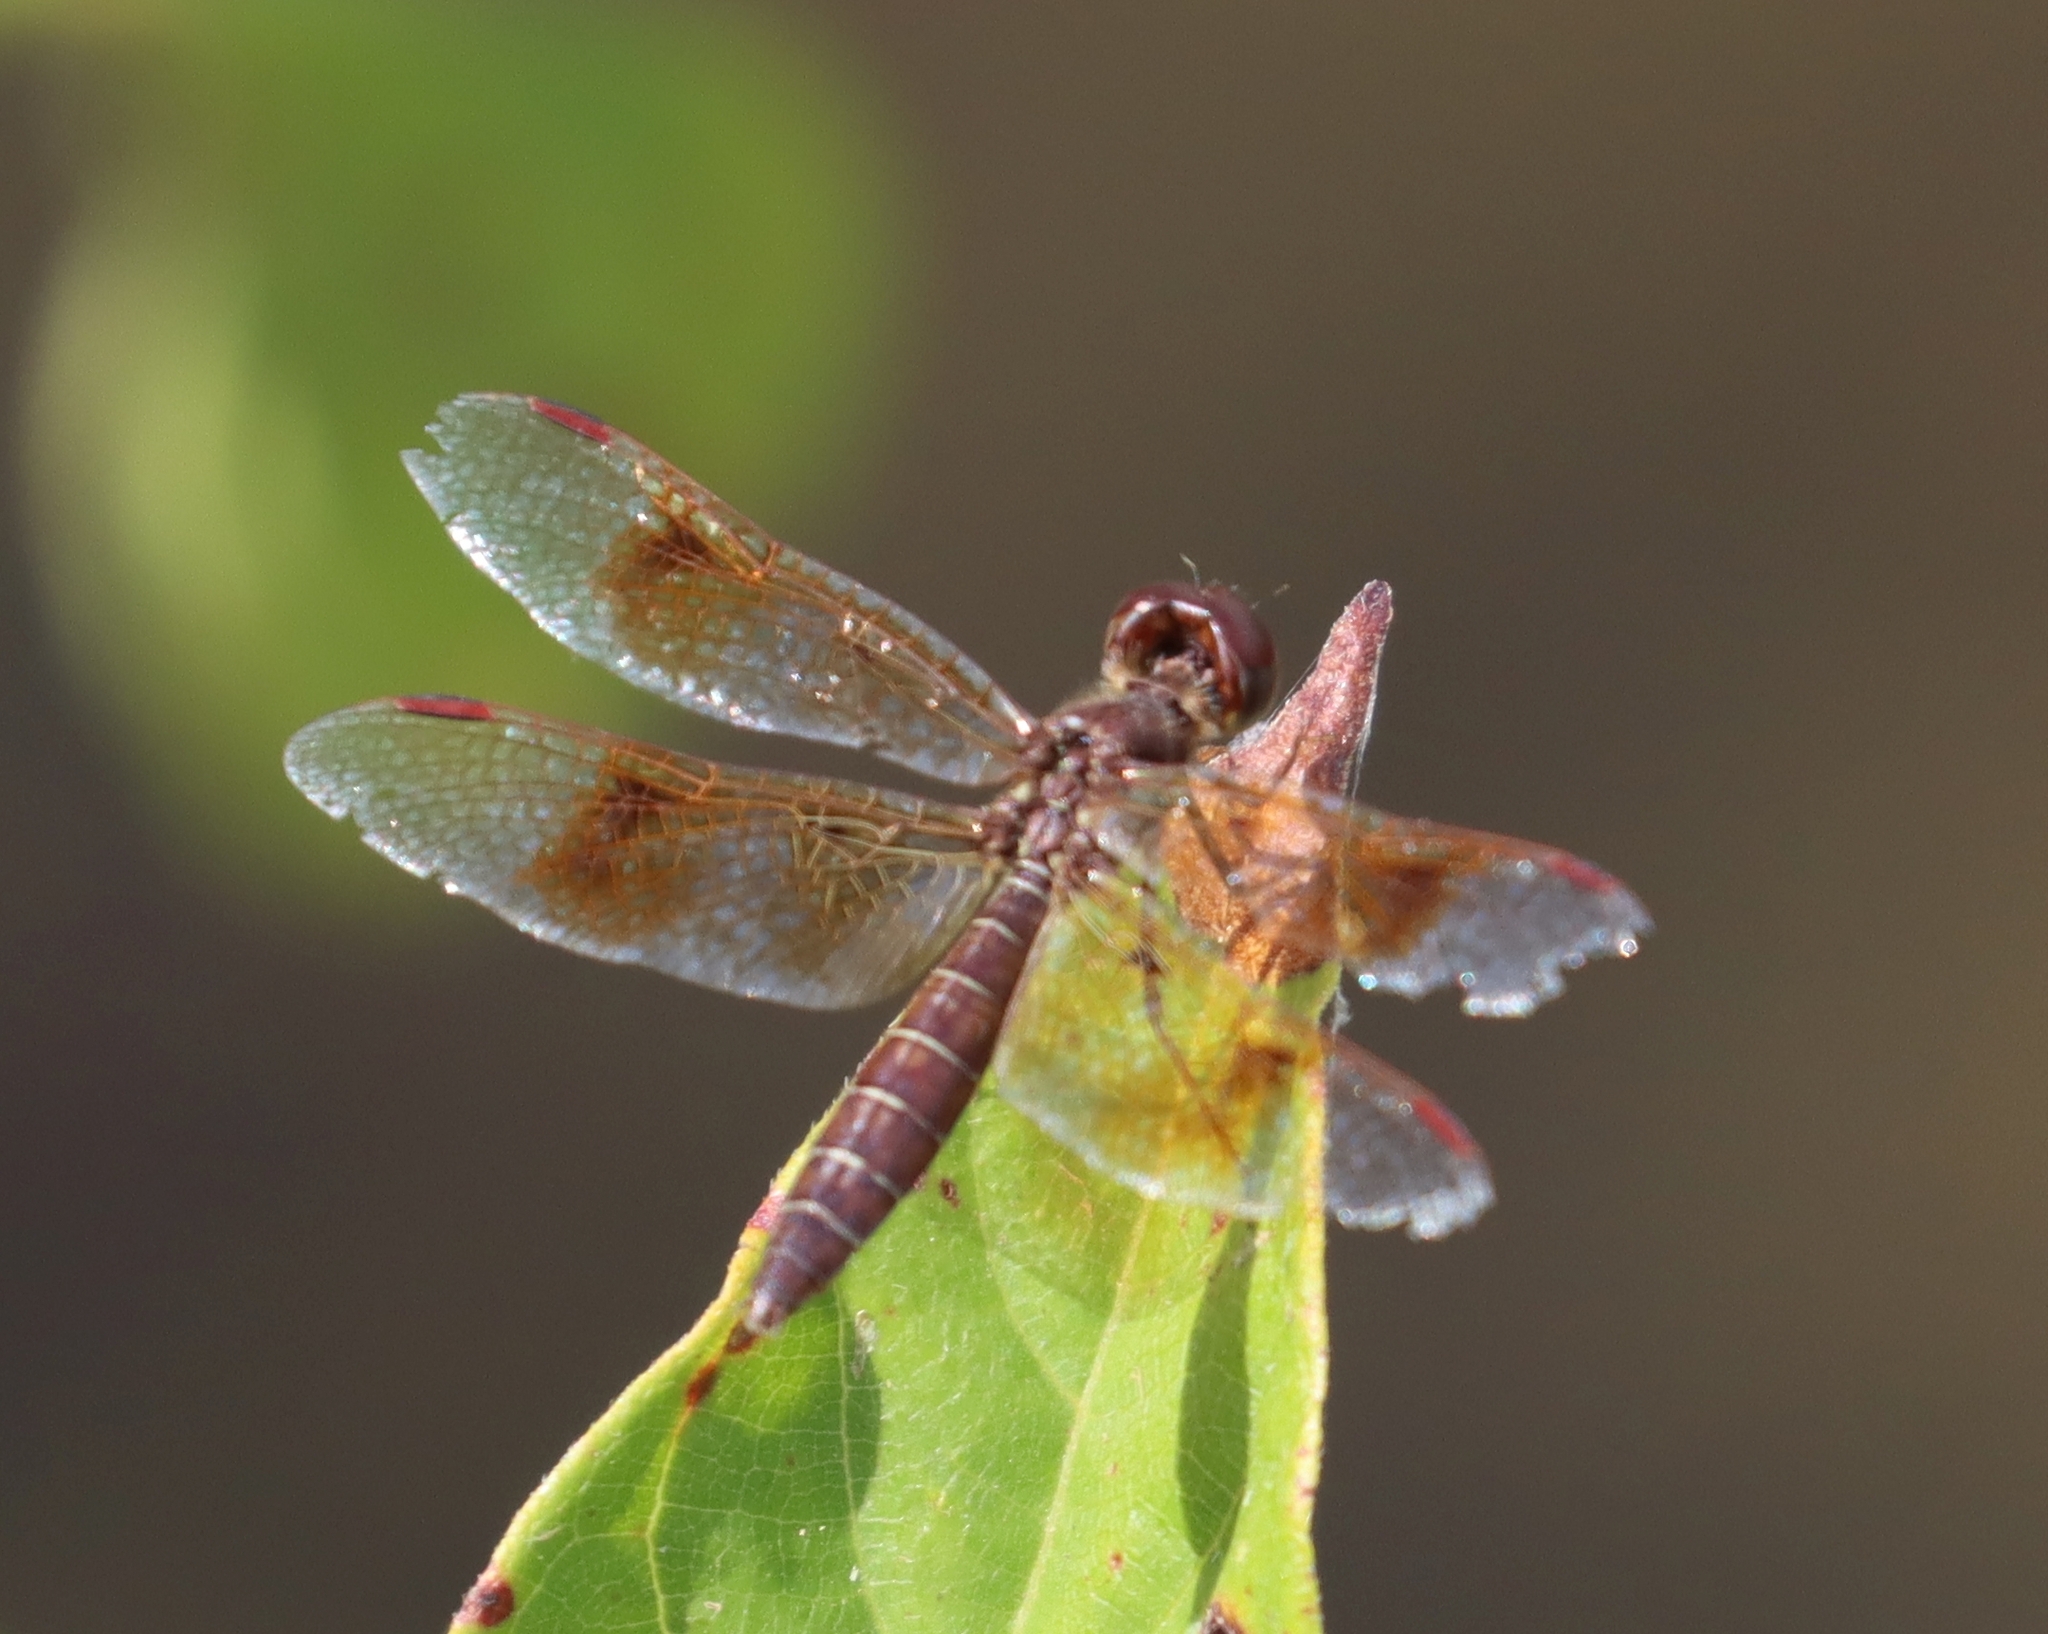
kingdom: Animalia
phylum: Arthropoda
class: Insecta
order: Odonata
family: Libellulidae
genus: Perithemis
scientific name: Perithemis tenera
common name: Eastern amberwing
